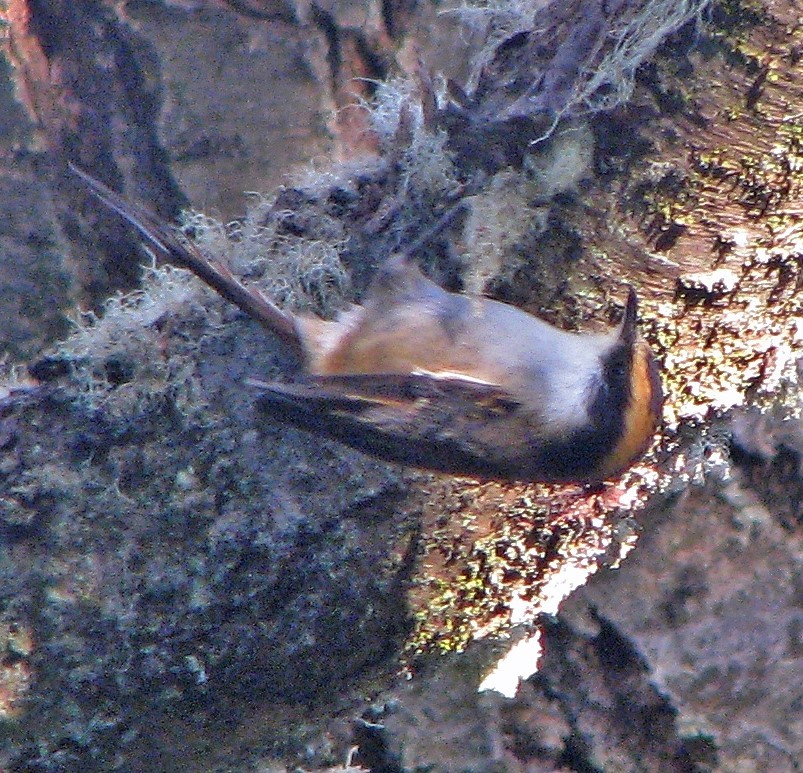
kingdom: Animalia
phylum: Chordata
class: Aves
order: Passeriformes
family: Furnariidae
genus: Aphrastura
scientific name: Aphrastura spinicauda
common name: Thorn-tailed rayadito
